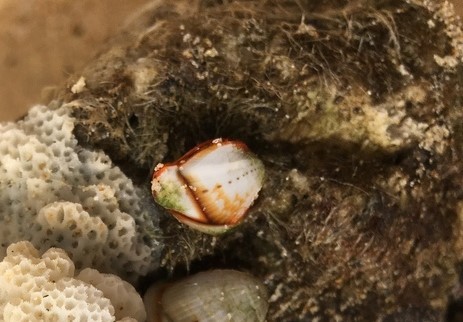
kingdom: Animalia
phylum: Arthropoda
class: Maxillopoda
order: Pedunculata
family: Lepadidae
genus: Lepas
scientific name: Lepas indica
